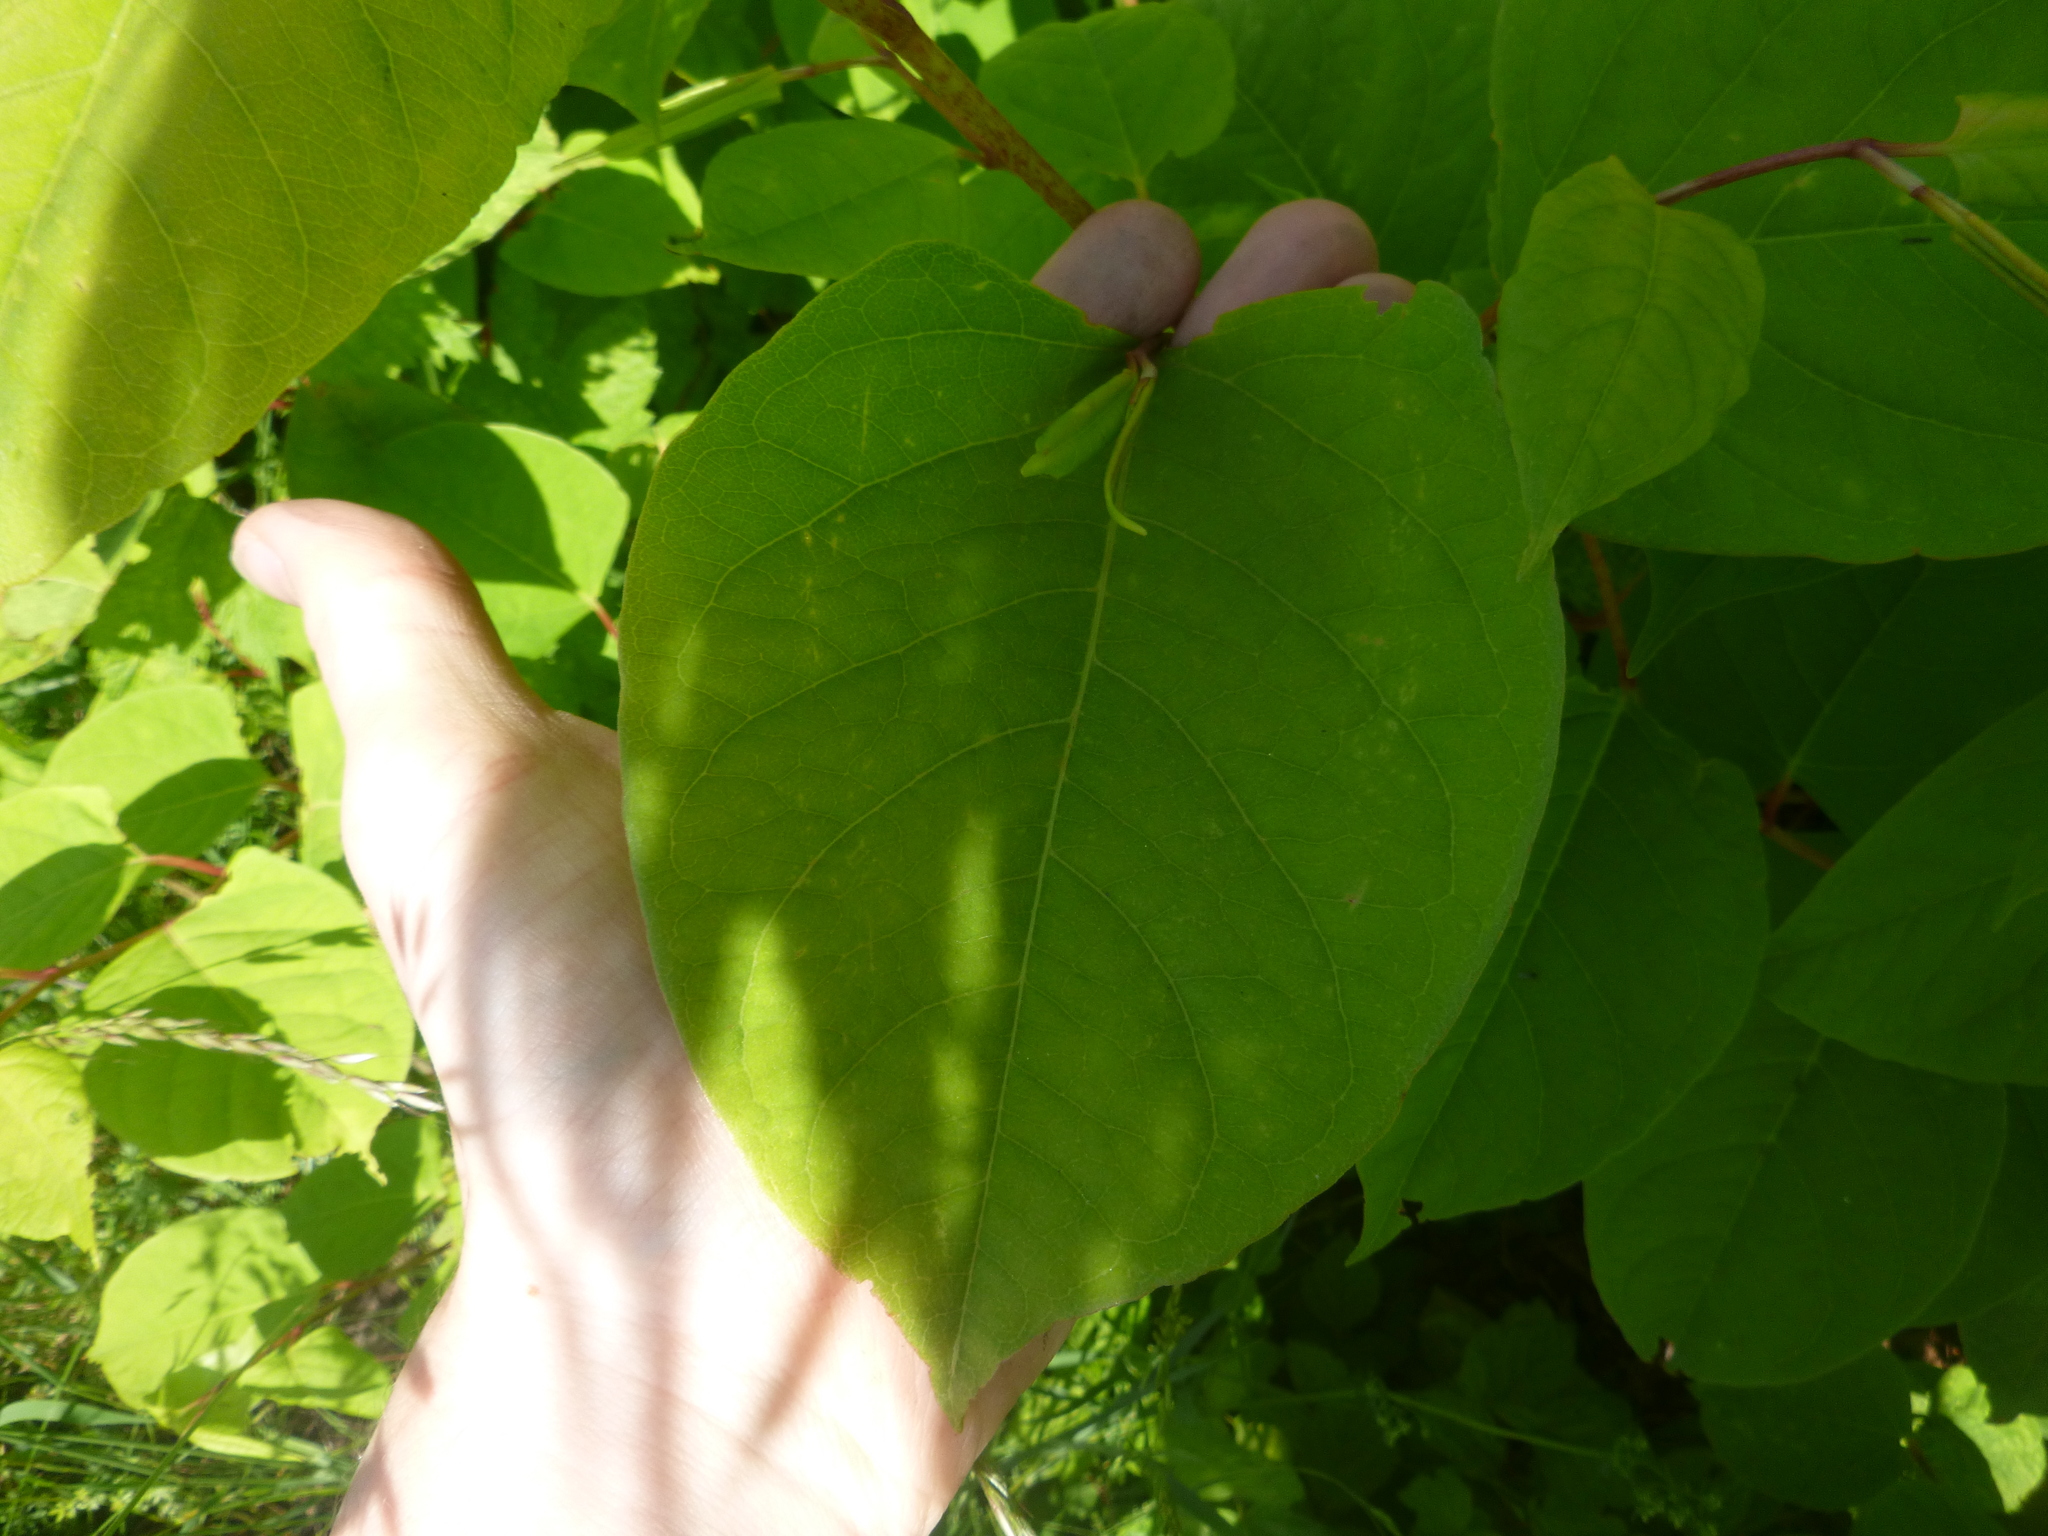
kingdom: Plantae
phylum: Tracheophyta
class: Magnoliopsida
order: Caryophyllales
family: Polygonaceae
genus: Reynoutria
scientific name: Reynoutria japonica
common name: Japanese knotweed
